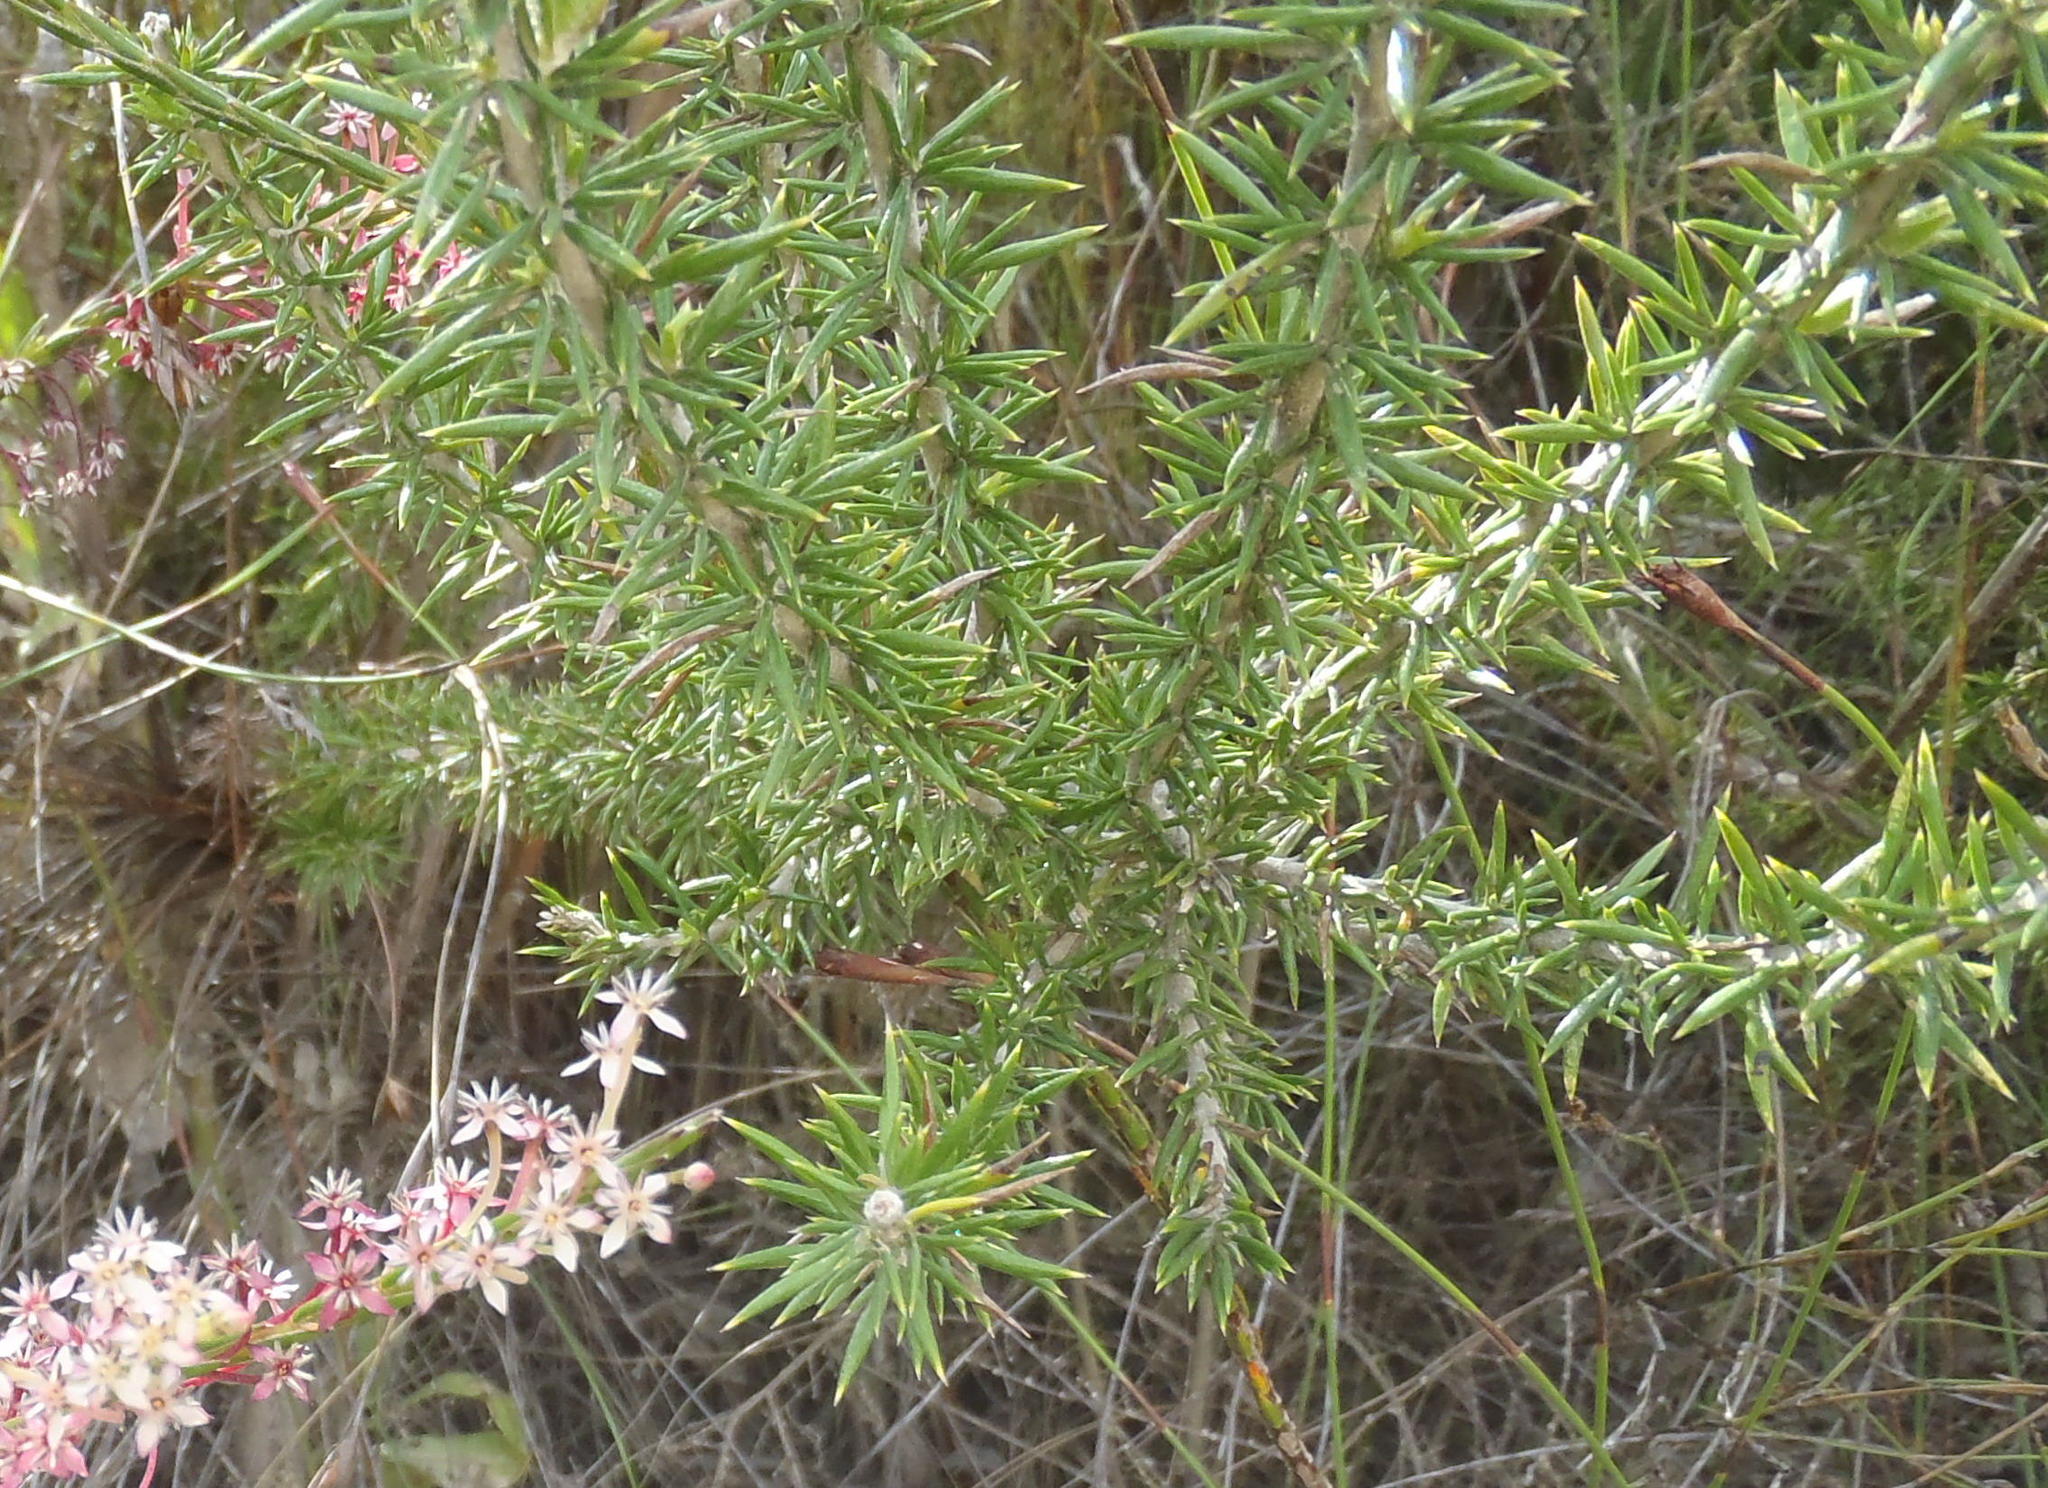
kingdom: Plantae
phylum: Tracheophyta
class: Magnoliopsida
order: Asterales
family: Asteraceae
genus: Metalasia
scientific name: Metalasia acuta
